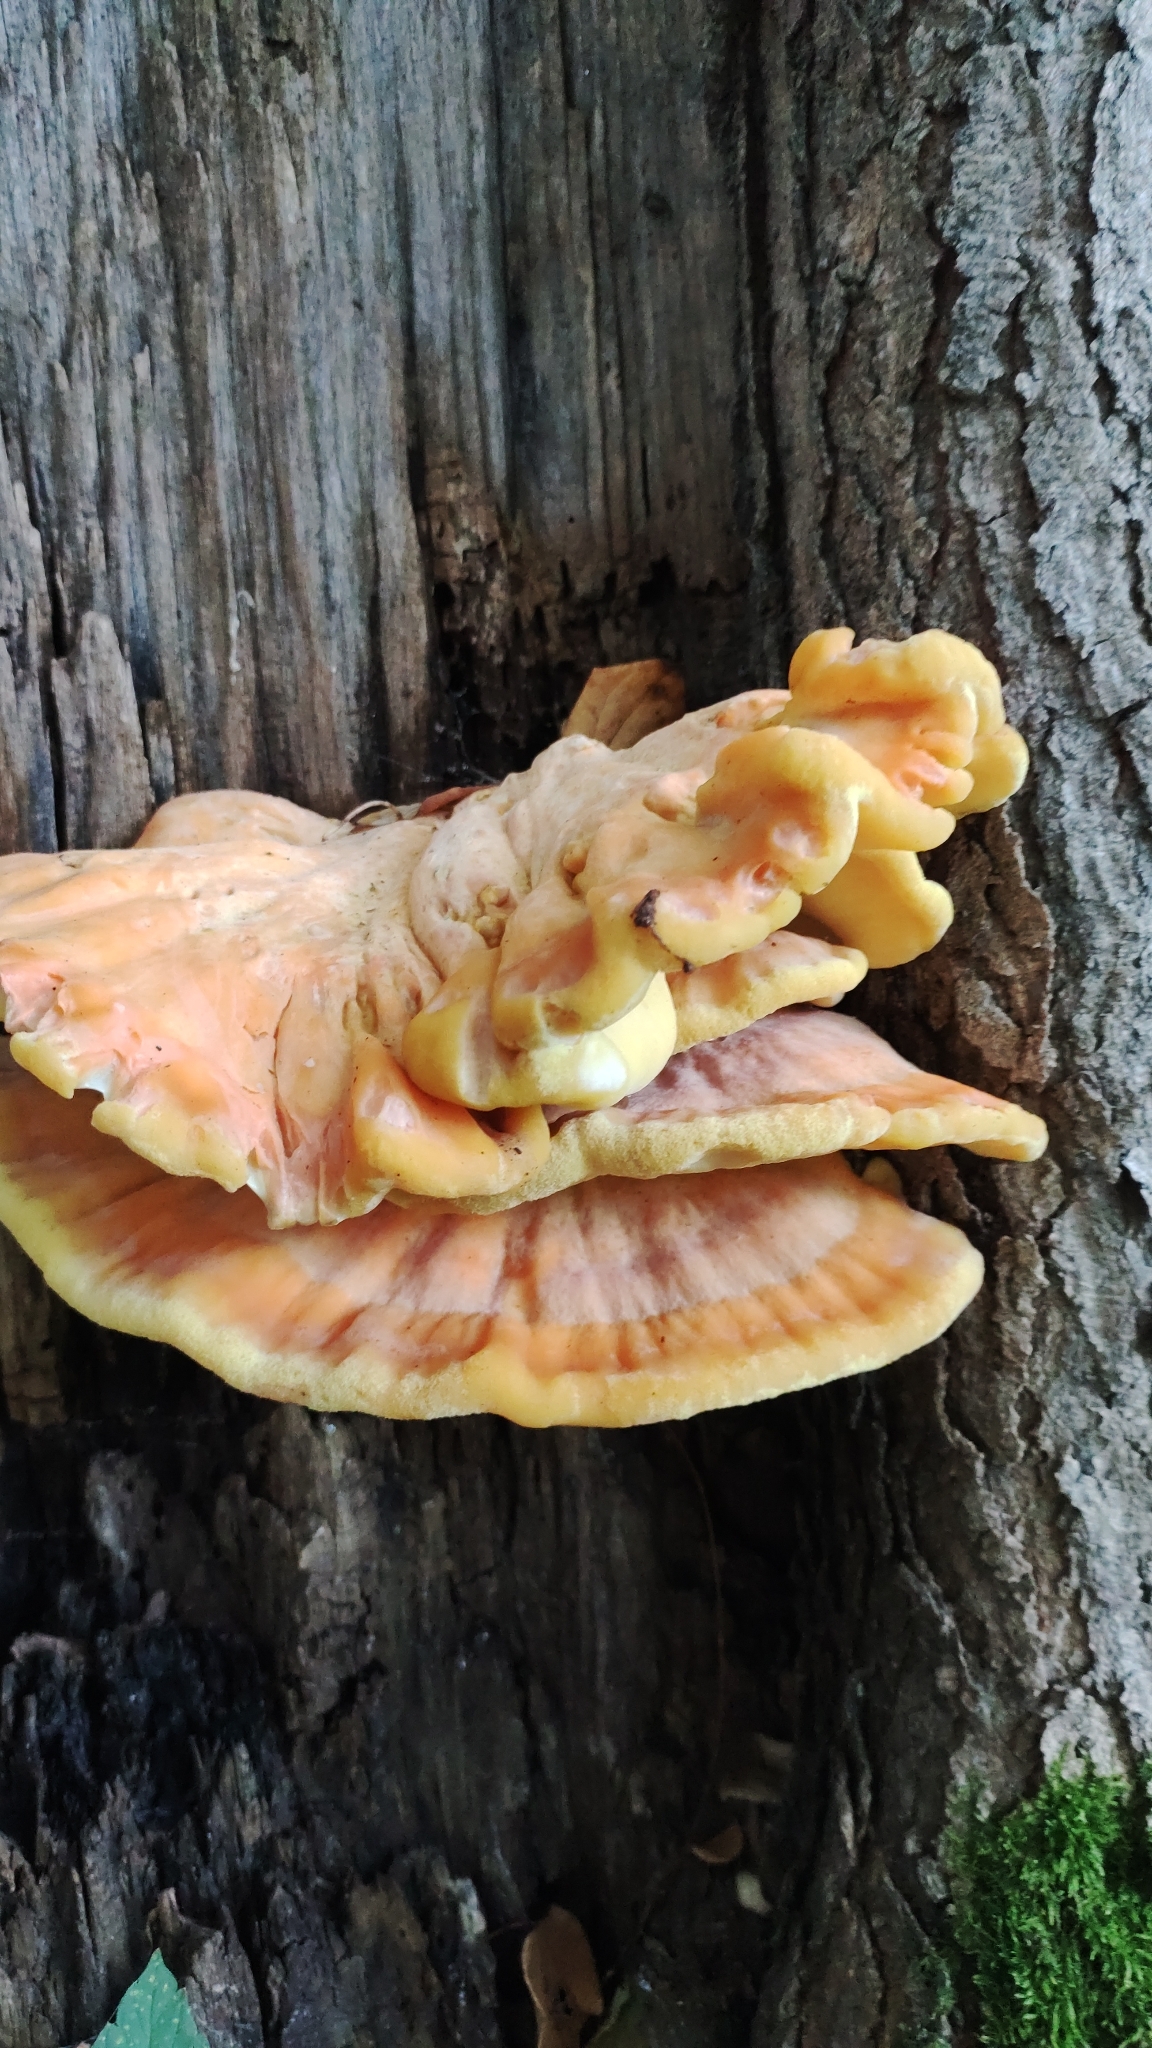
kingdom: Fungi
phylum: Basidiomycota
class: Agaricomycetes
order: Polyporales
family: Laetiporaceae
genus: Laetiporus
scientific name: Laetiporus sulphureus
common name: Chicken of the woods
